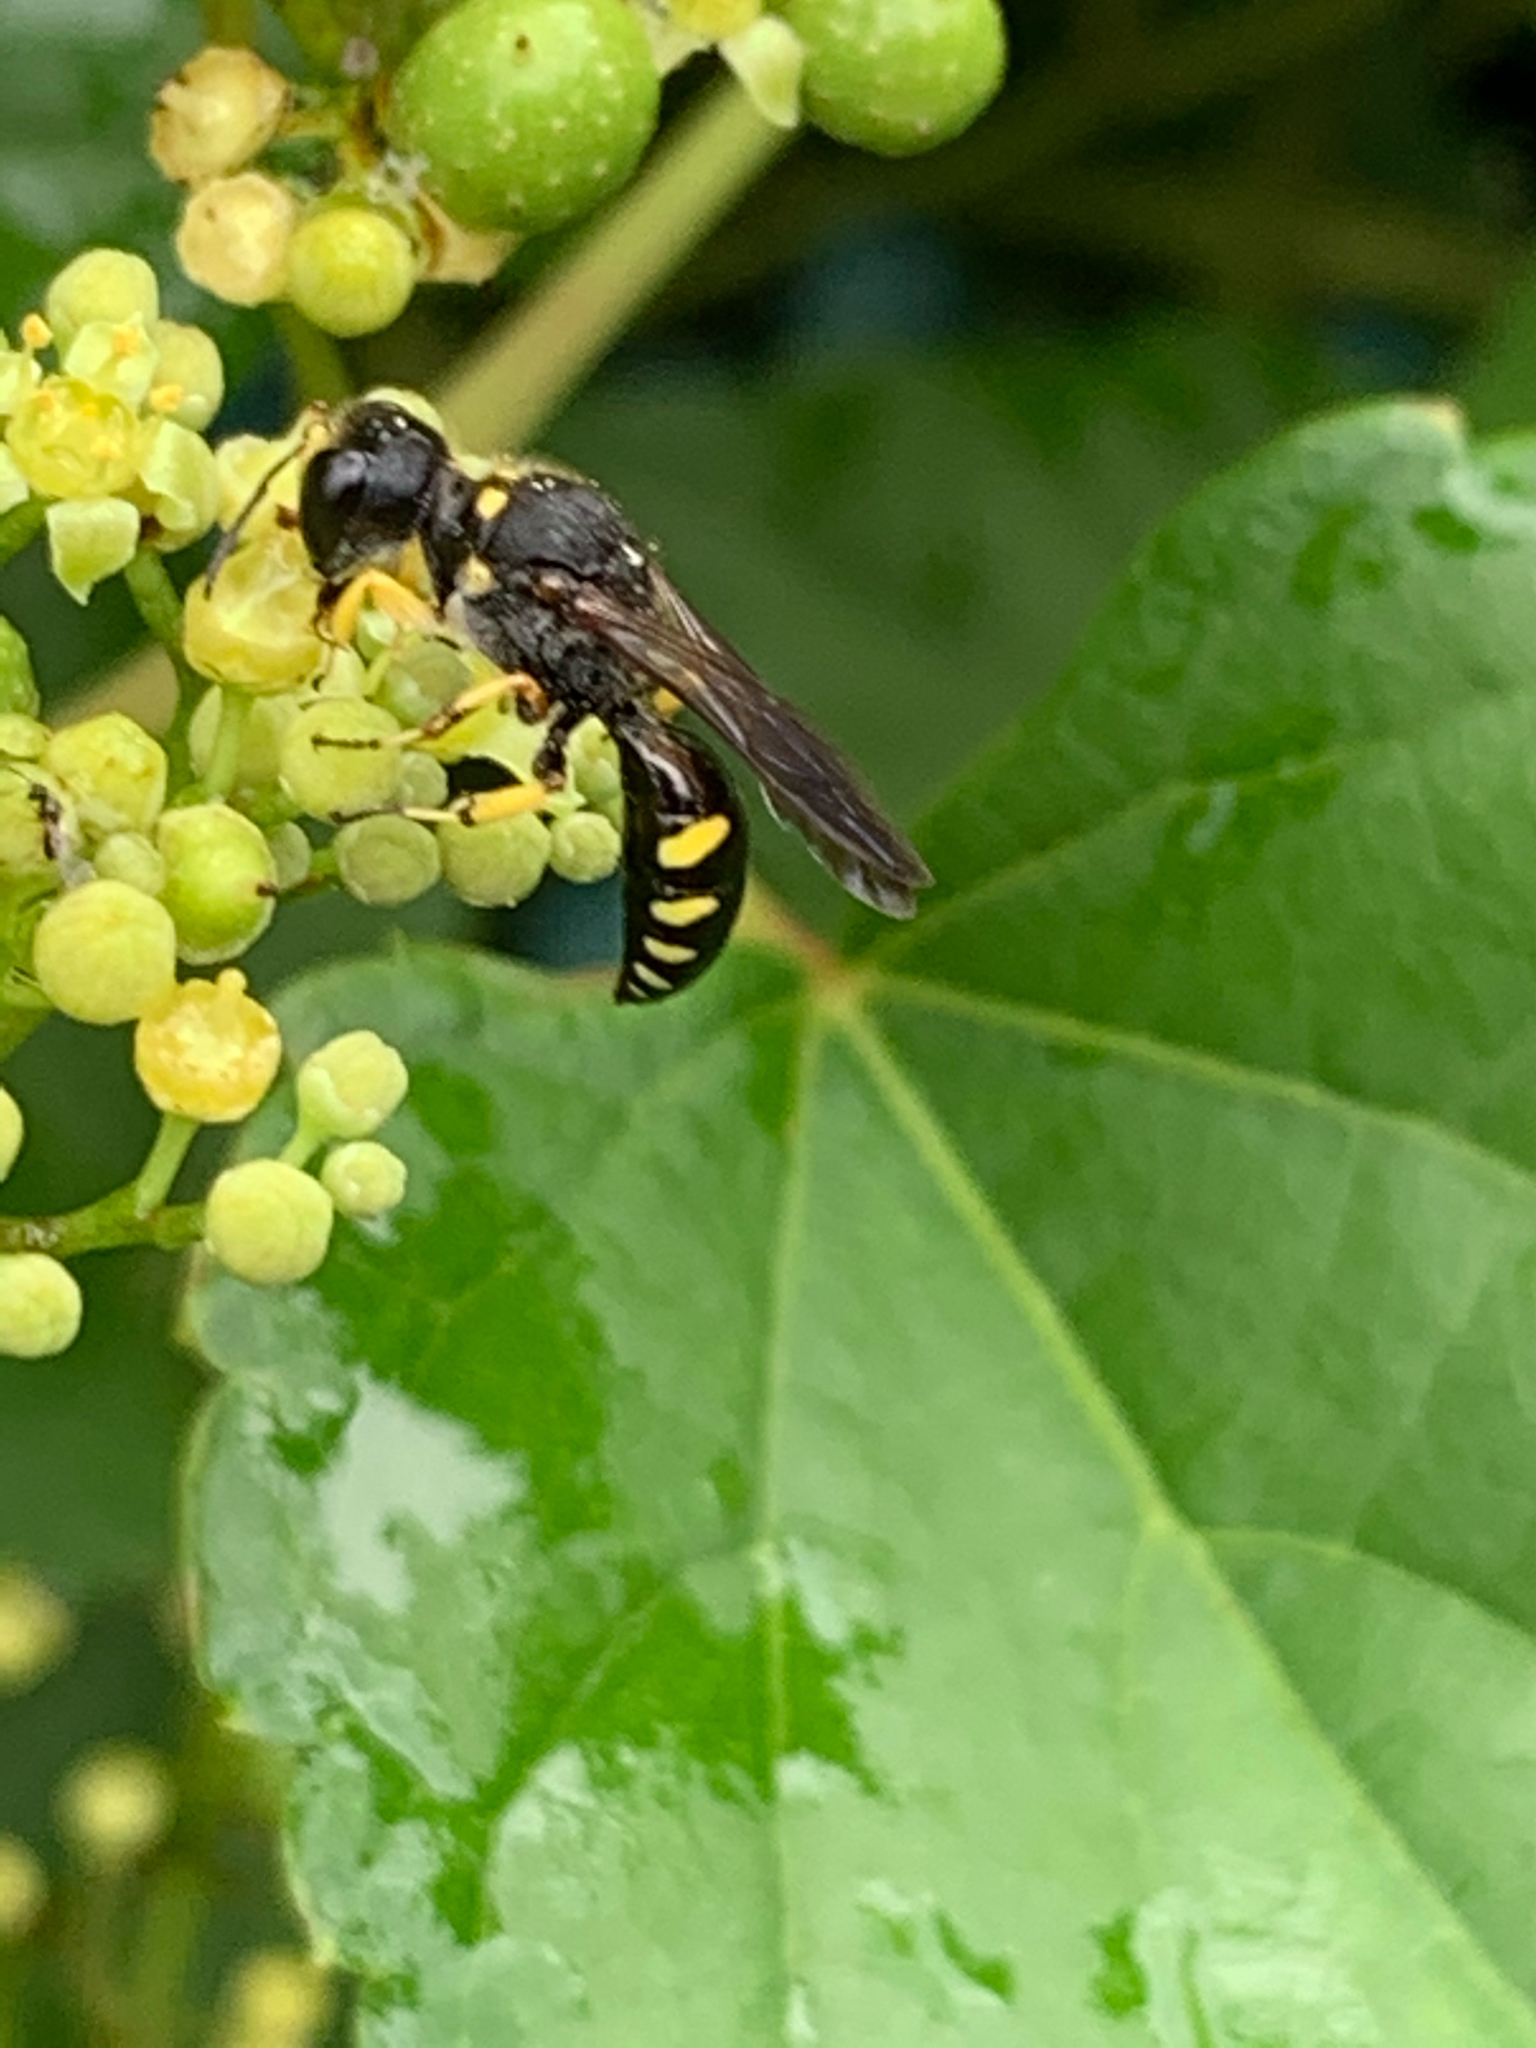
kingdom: Animalia
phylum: Arthropoda
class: Insecta
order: Hymenoptera
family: Crabronidae
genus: Ectemnius
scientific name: Ectemnius maculosus
